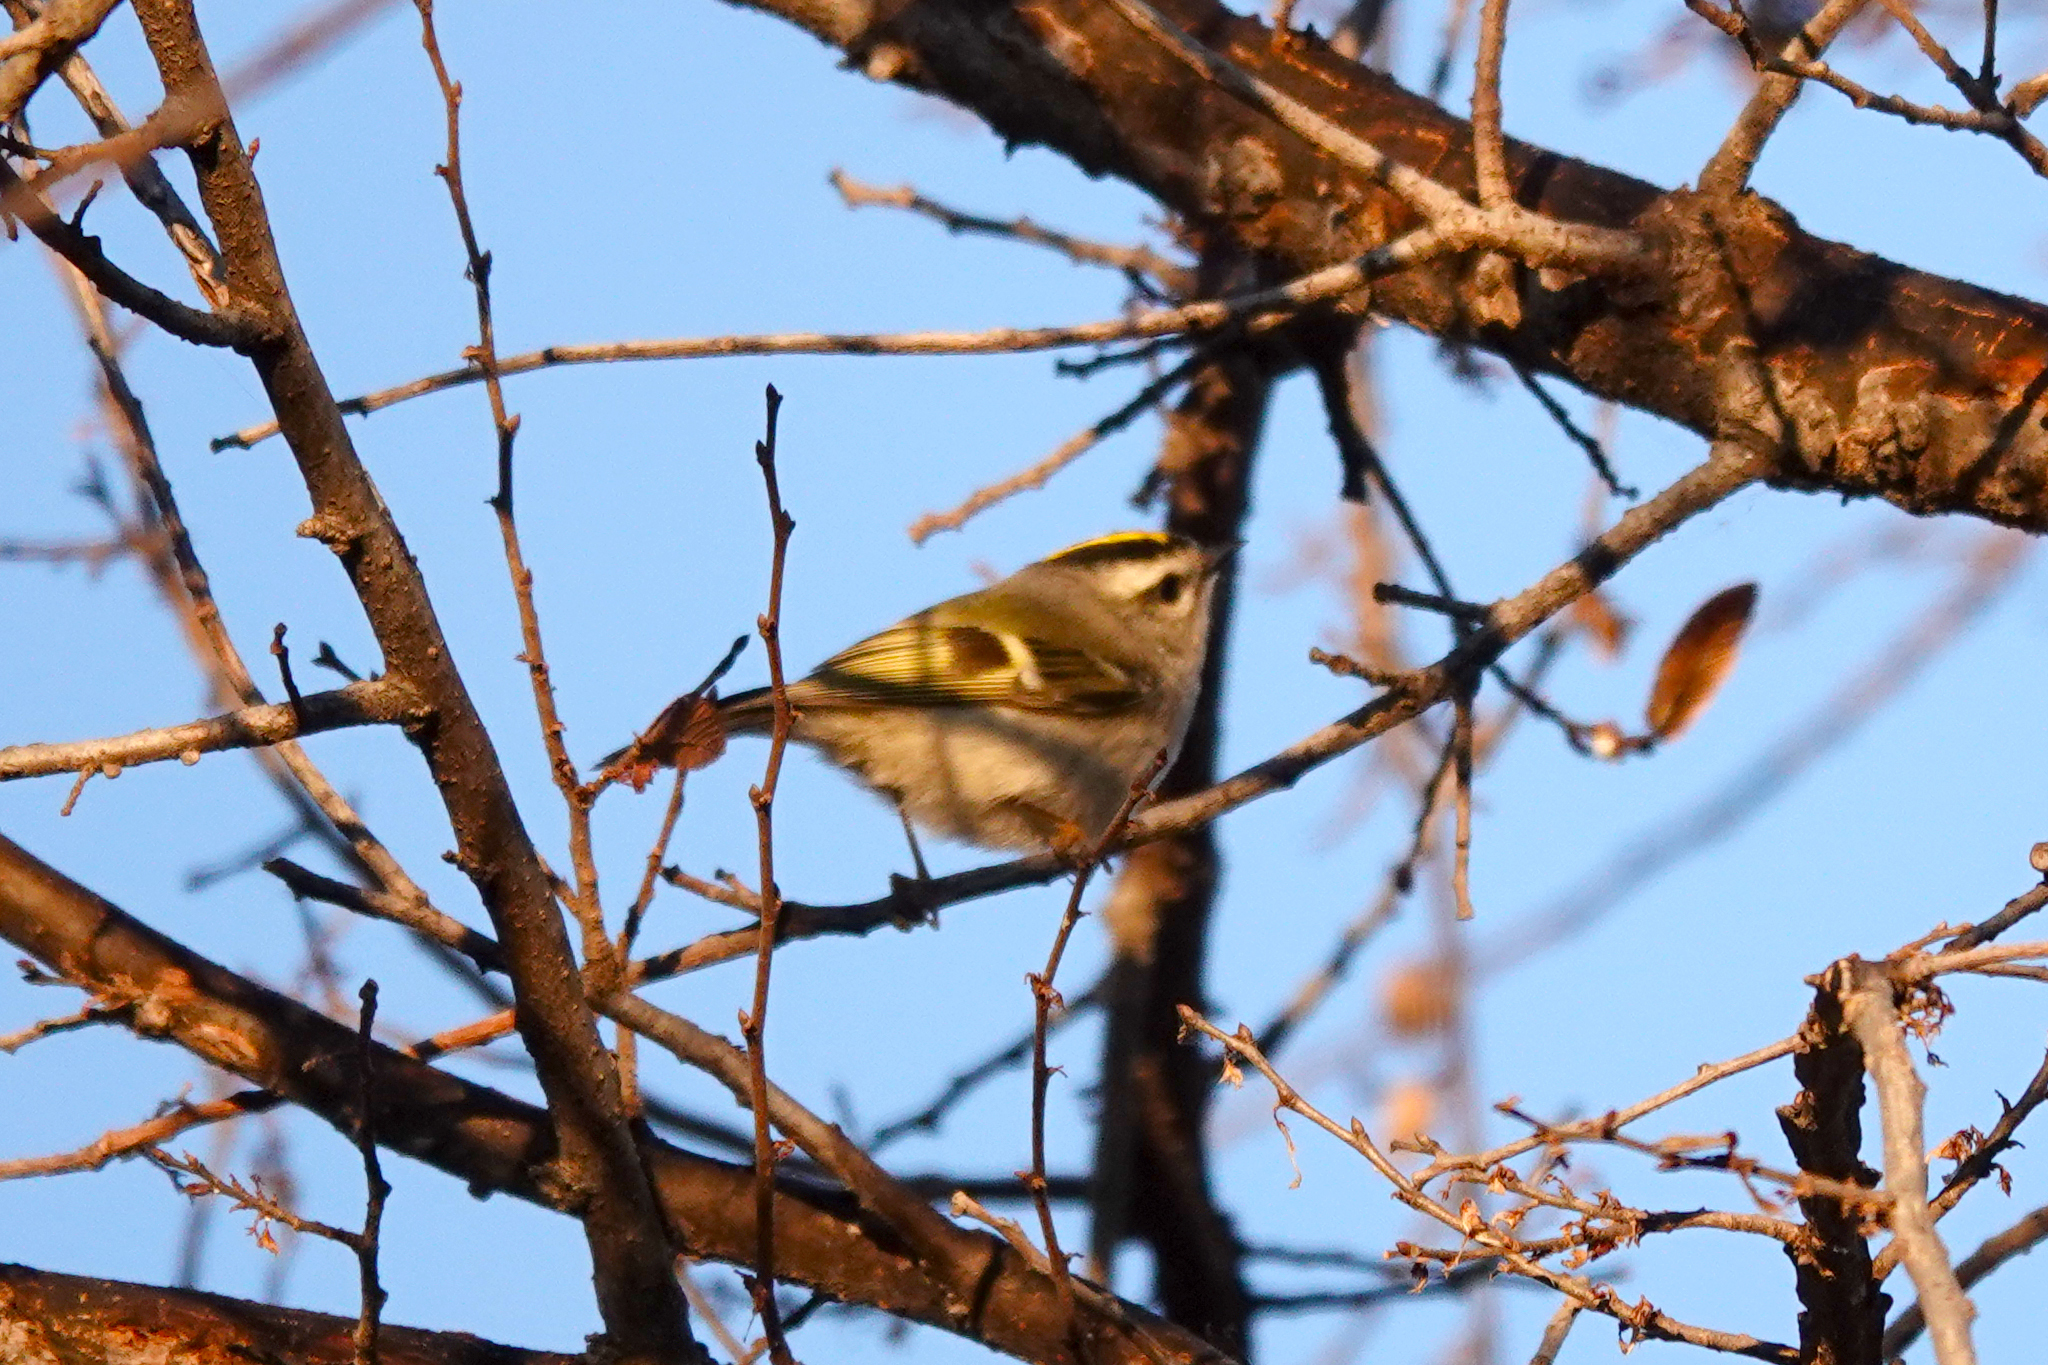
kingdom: Animalia
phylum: Chordata
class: Aves
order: Passeriformes
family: Regulidae
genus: Regulus
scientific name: Regulus satrapa
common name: Golden-crowned kinglet
